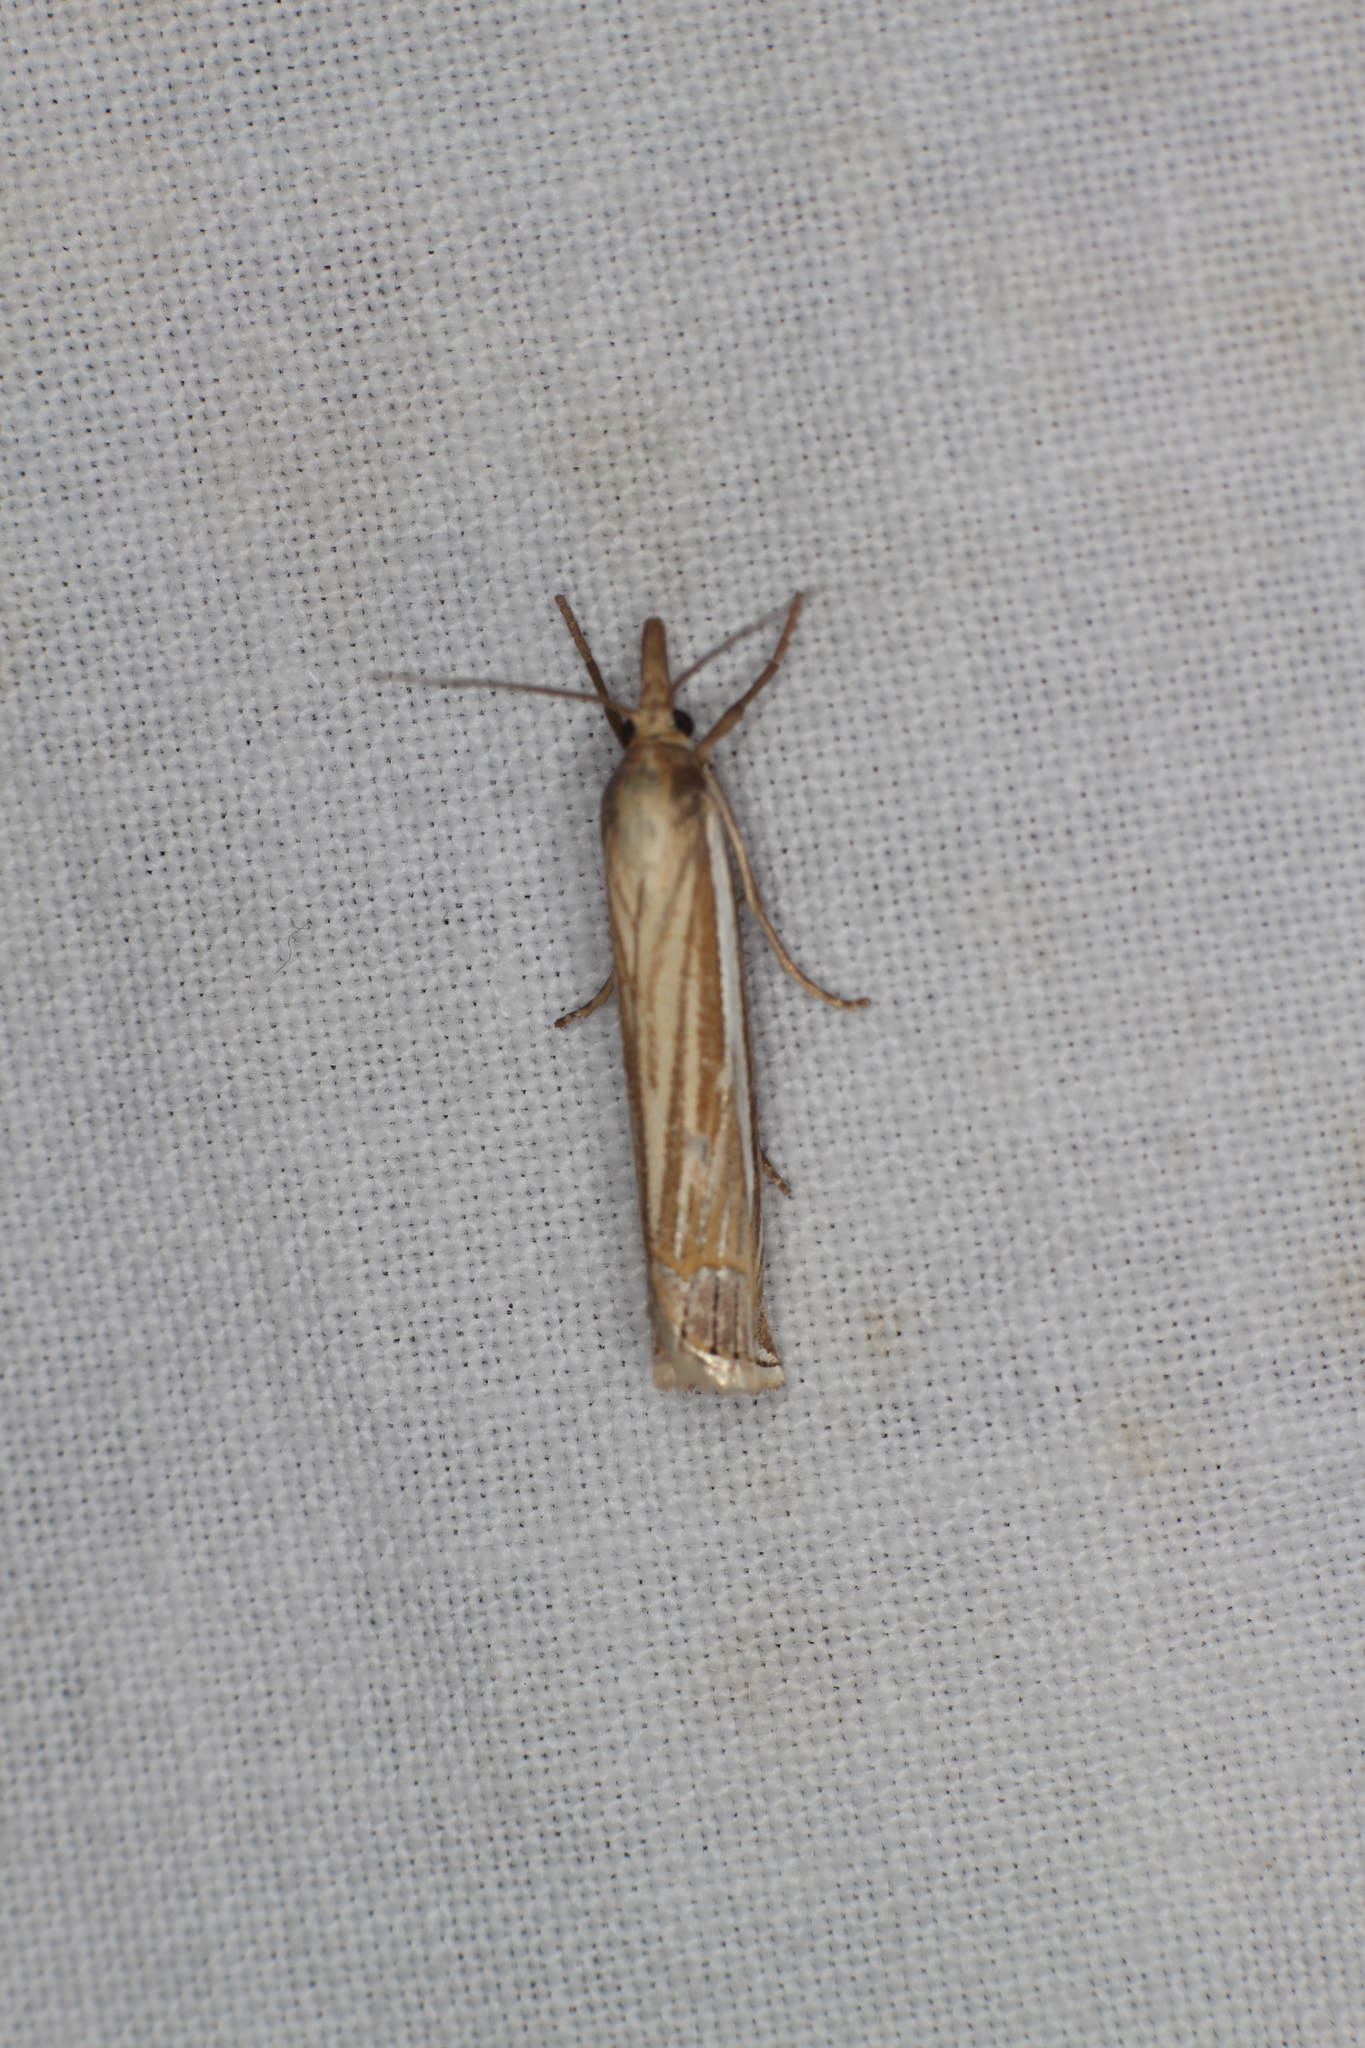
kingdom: Animalia
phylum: Arthropoda
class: Insecta
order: Lepidoptera
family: Crambidae
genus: Crambus
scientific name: Crambus laqueatellus
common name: Eastern grass-veneer
